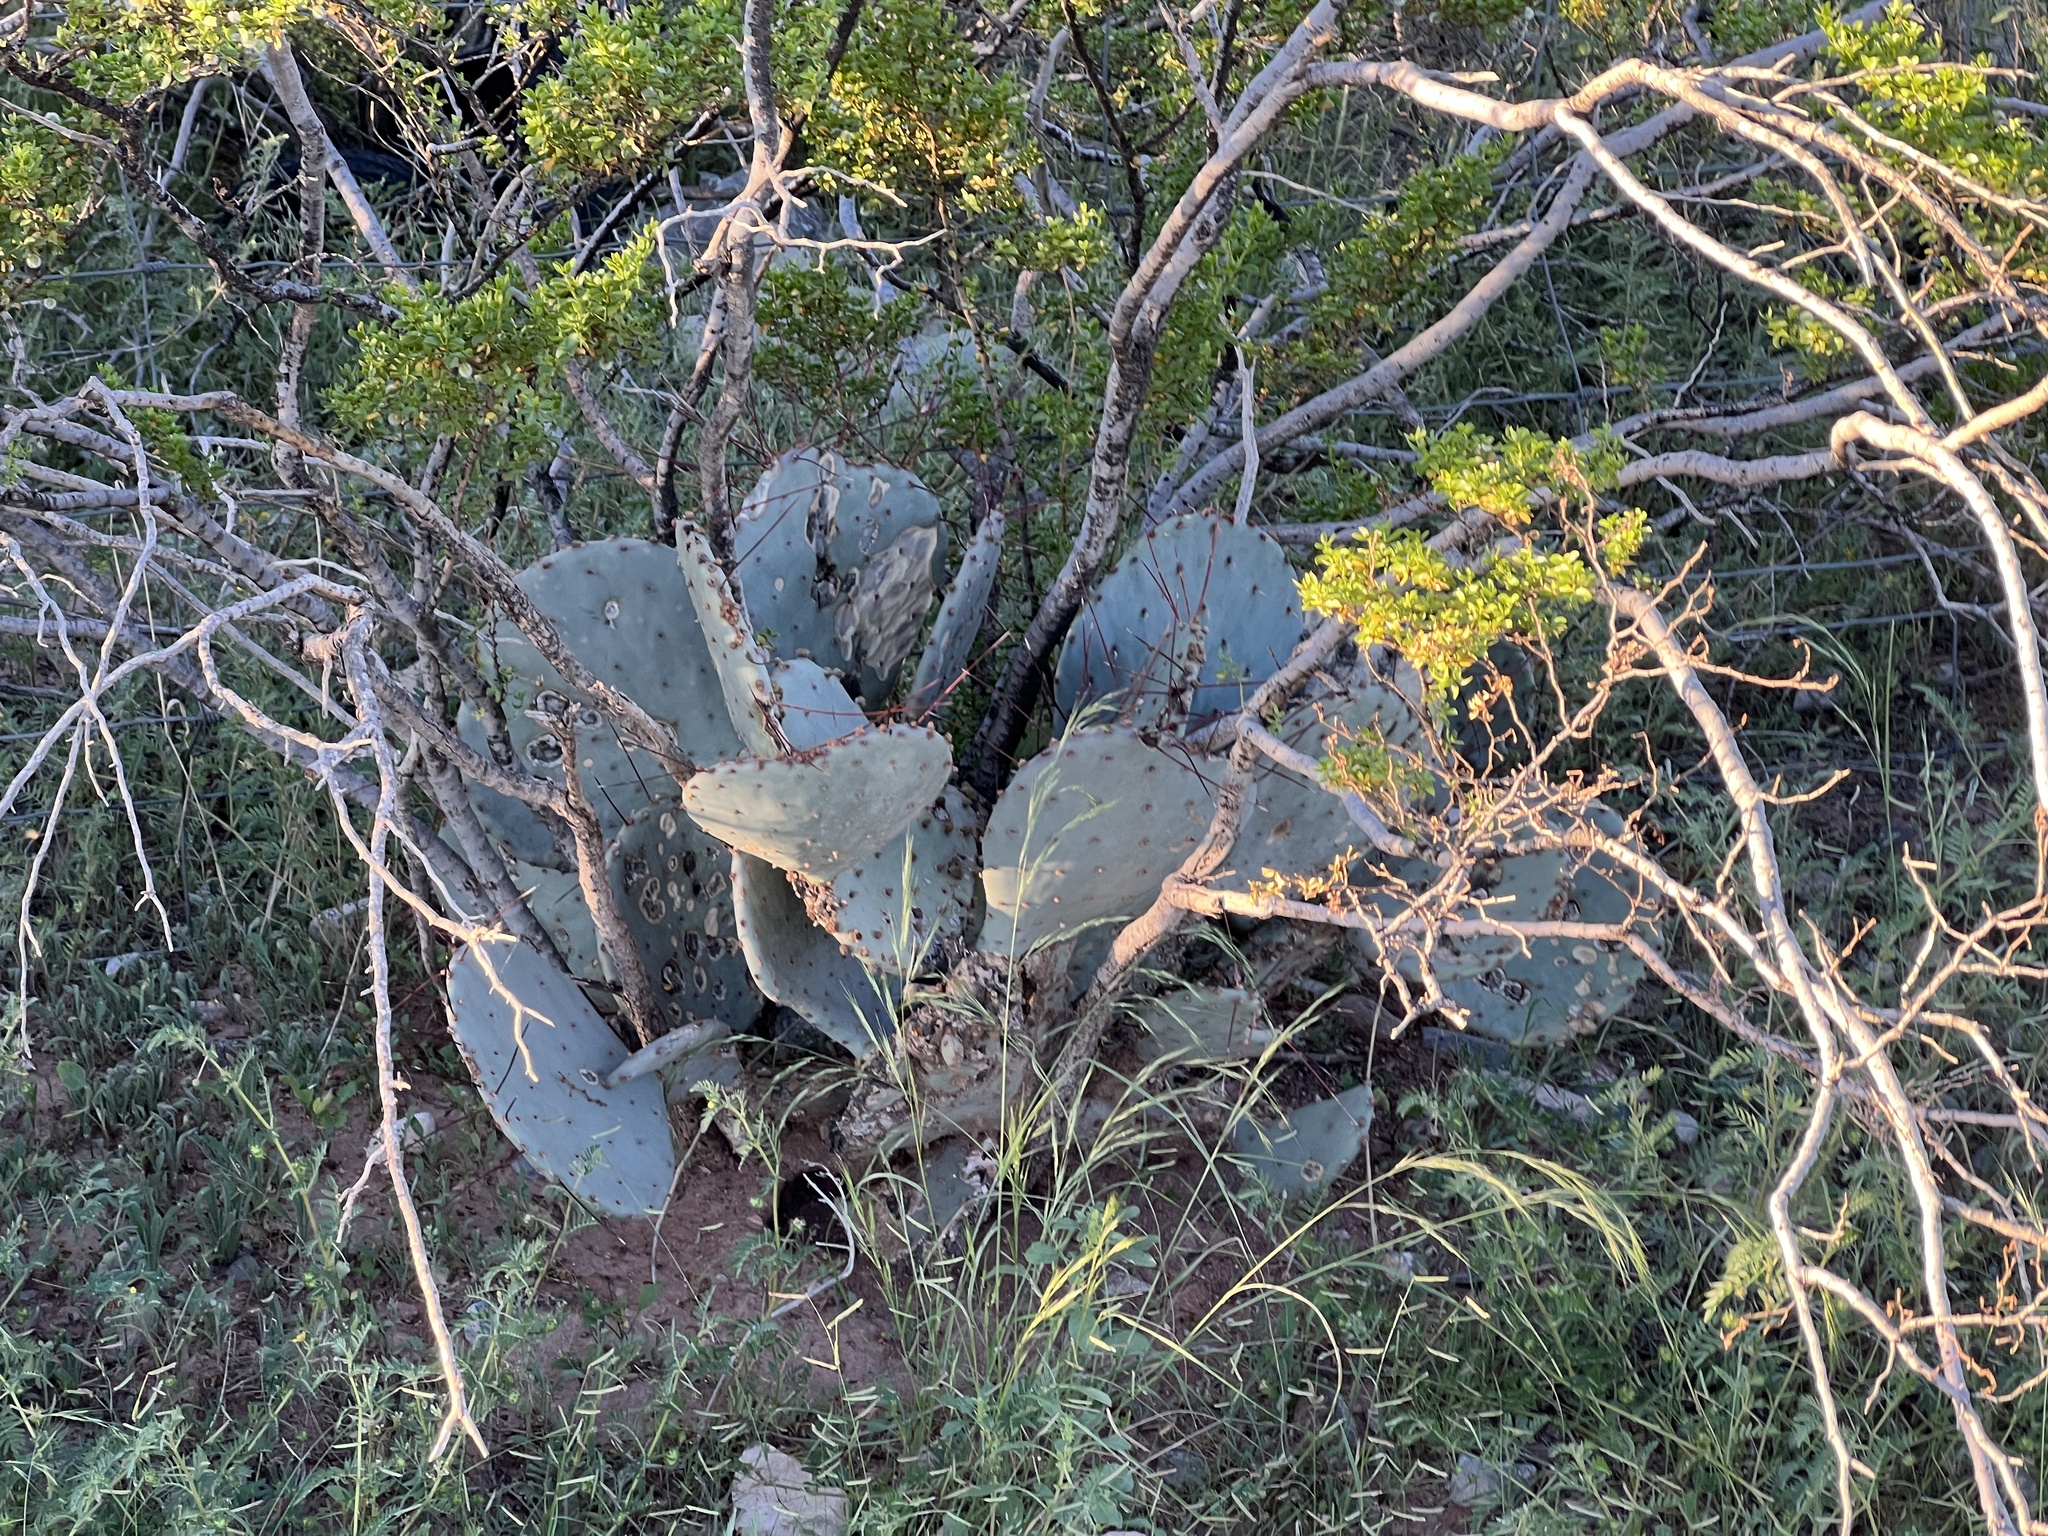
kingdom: Plantae
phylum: Tracheophyta
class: Magnoliopsida
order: Caryophyllales
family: Cactaceae
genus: Opuntia
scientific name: Opuntia macrocentra
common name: Purple prickly-pear
